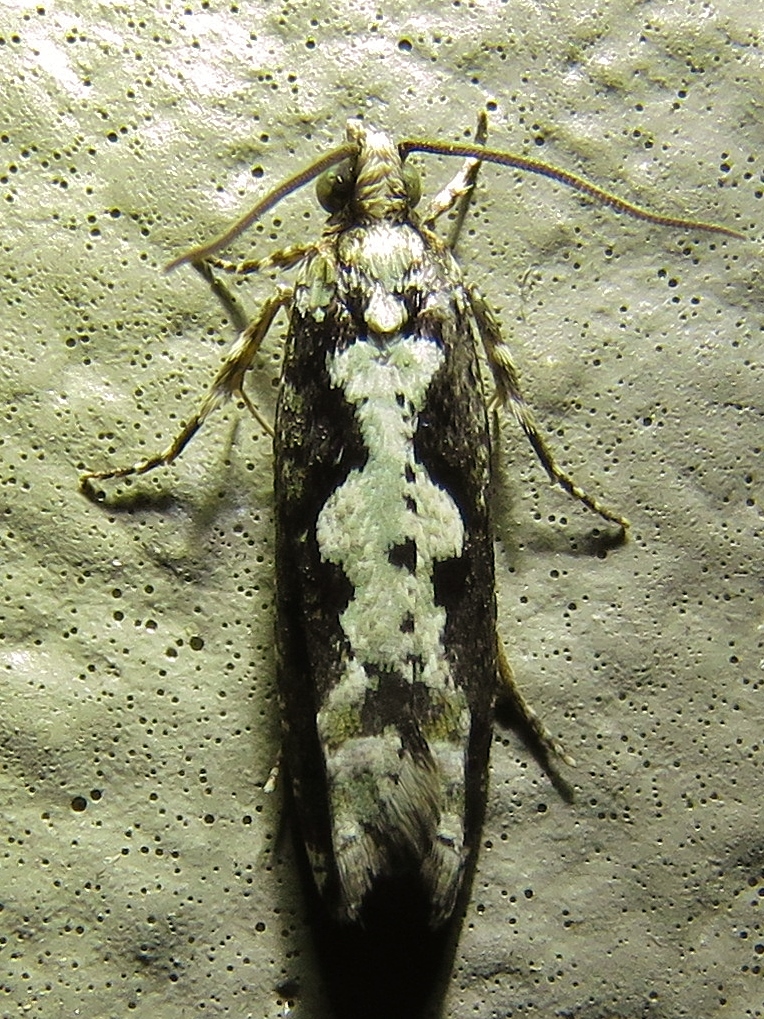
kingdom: Animalia
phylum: Arthropoda
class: Insecta
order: Lepidoptera
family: Tortricidae
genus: Chimoptesis
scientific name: Chimoptesis pennsylvaniana
